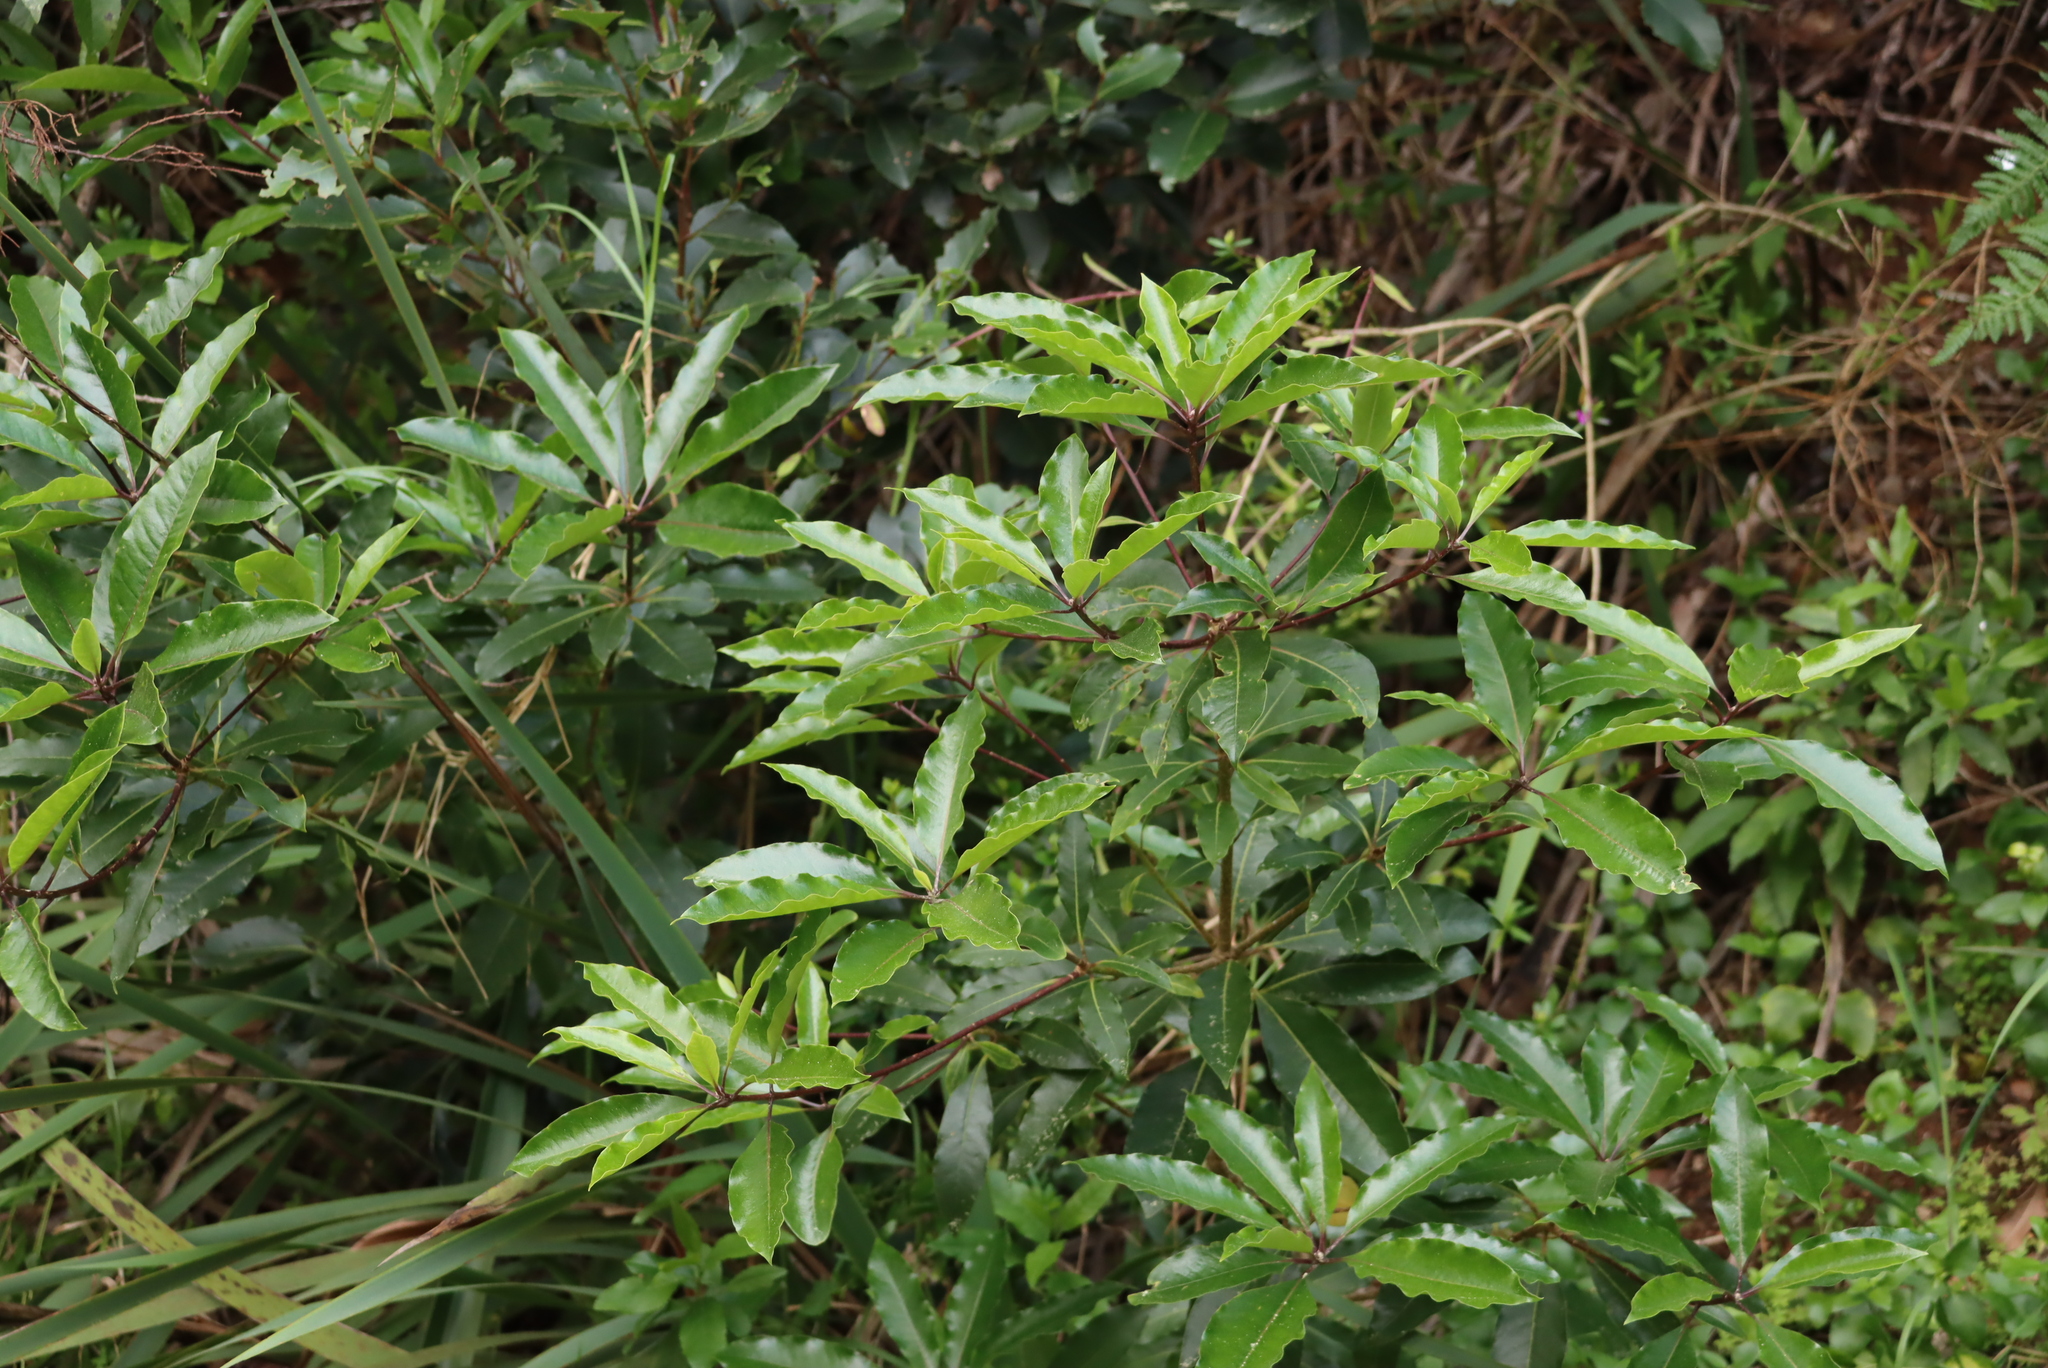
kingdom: Plantae
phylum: Tracheophyta
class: Magnoliopsida
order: Apiales
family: Pittosporaceae
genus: Pittosporum
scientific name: Pittosporum undulatum
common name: Australian cheesewood
